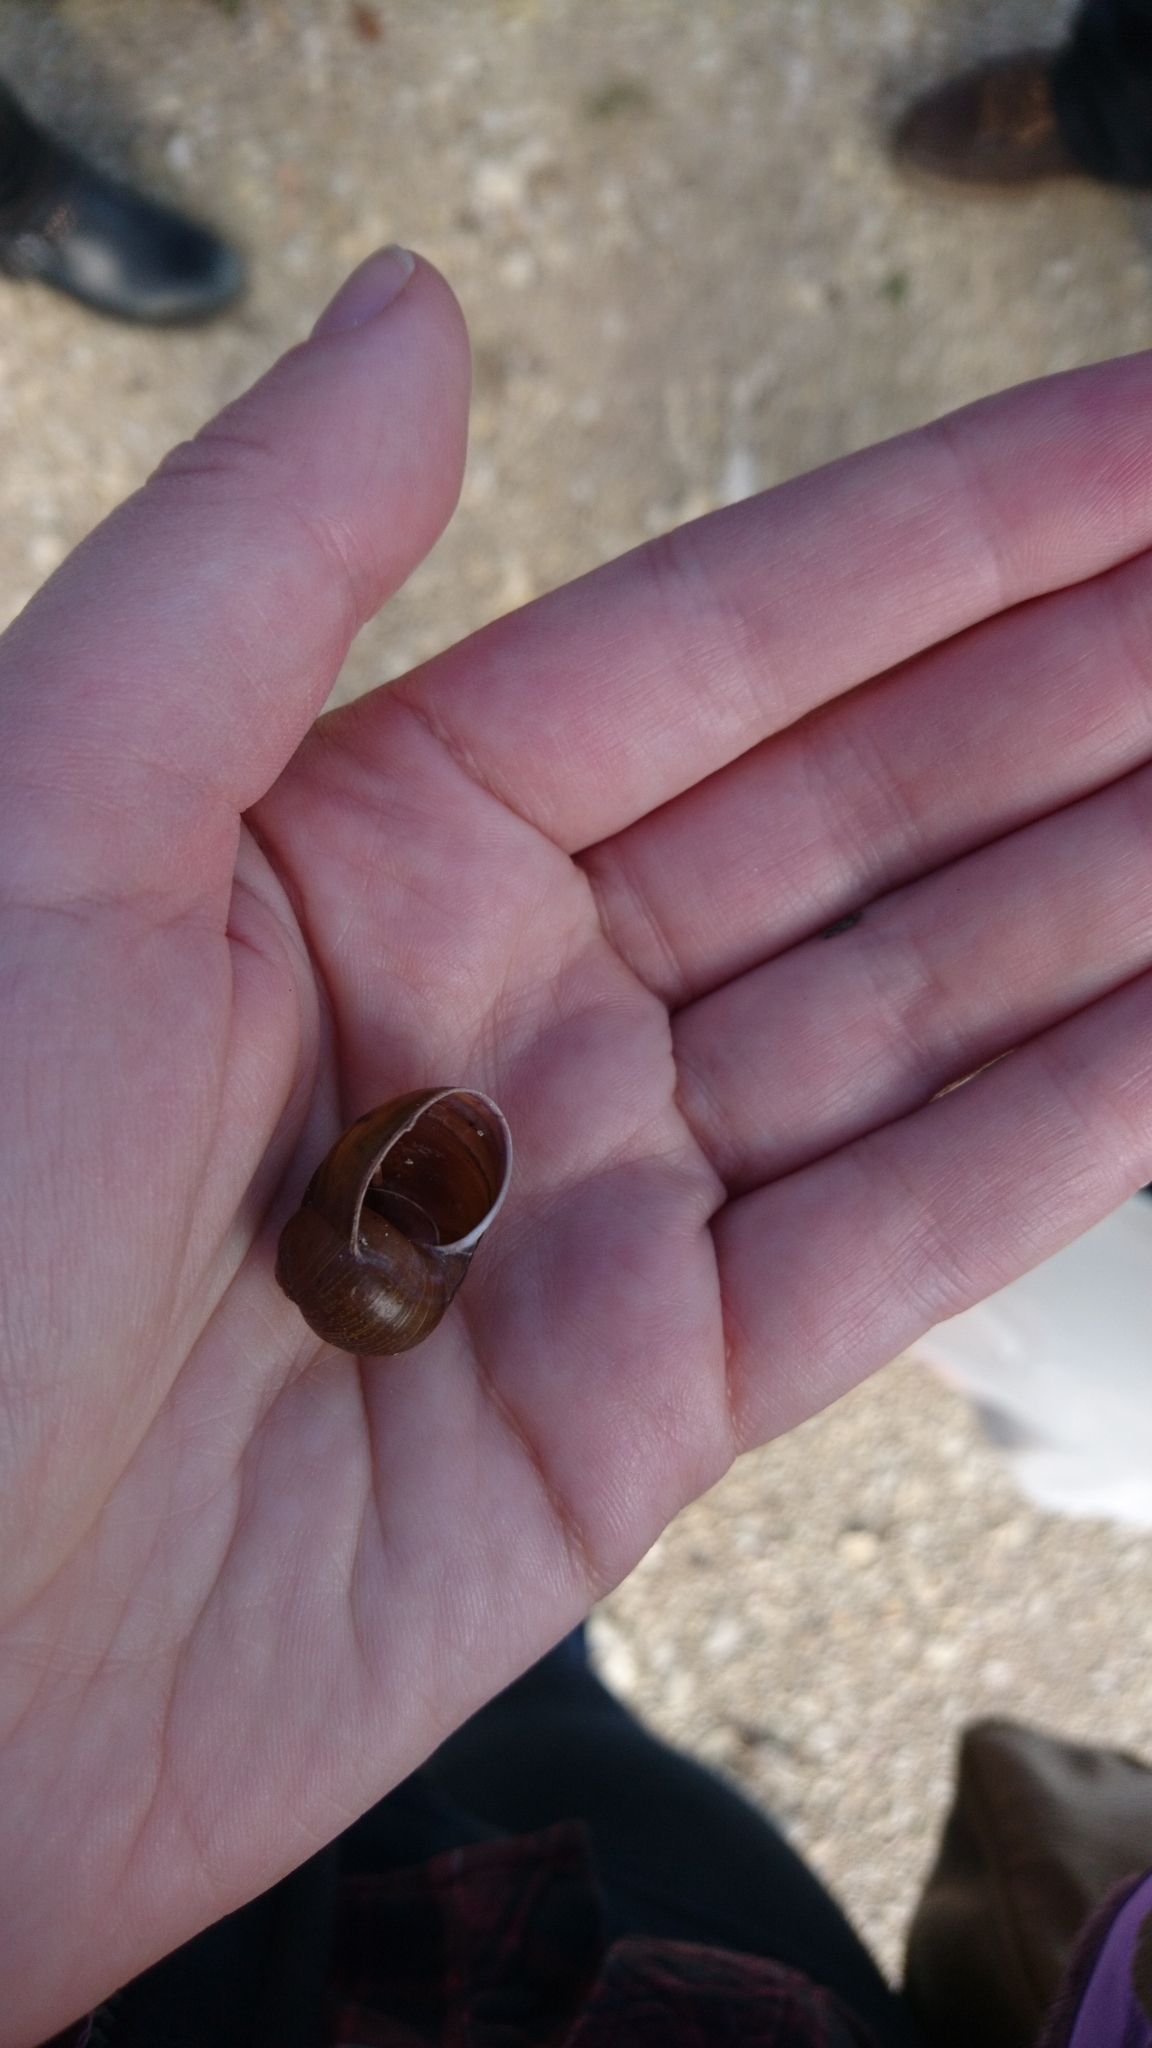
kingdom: Animalia
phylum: Mollusca
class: Gastropoda
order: Stylommatophora
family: Helicidae
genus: Cantareus
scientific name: Cantareus apertus
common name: Green gardensnail
